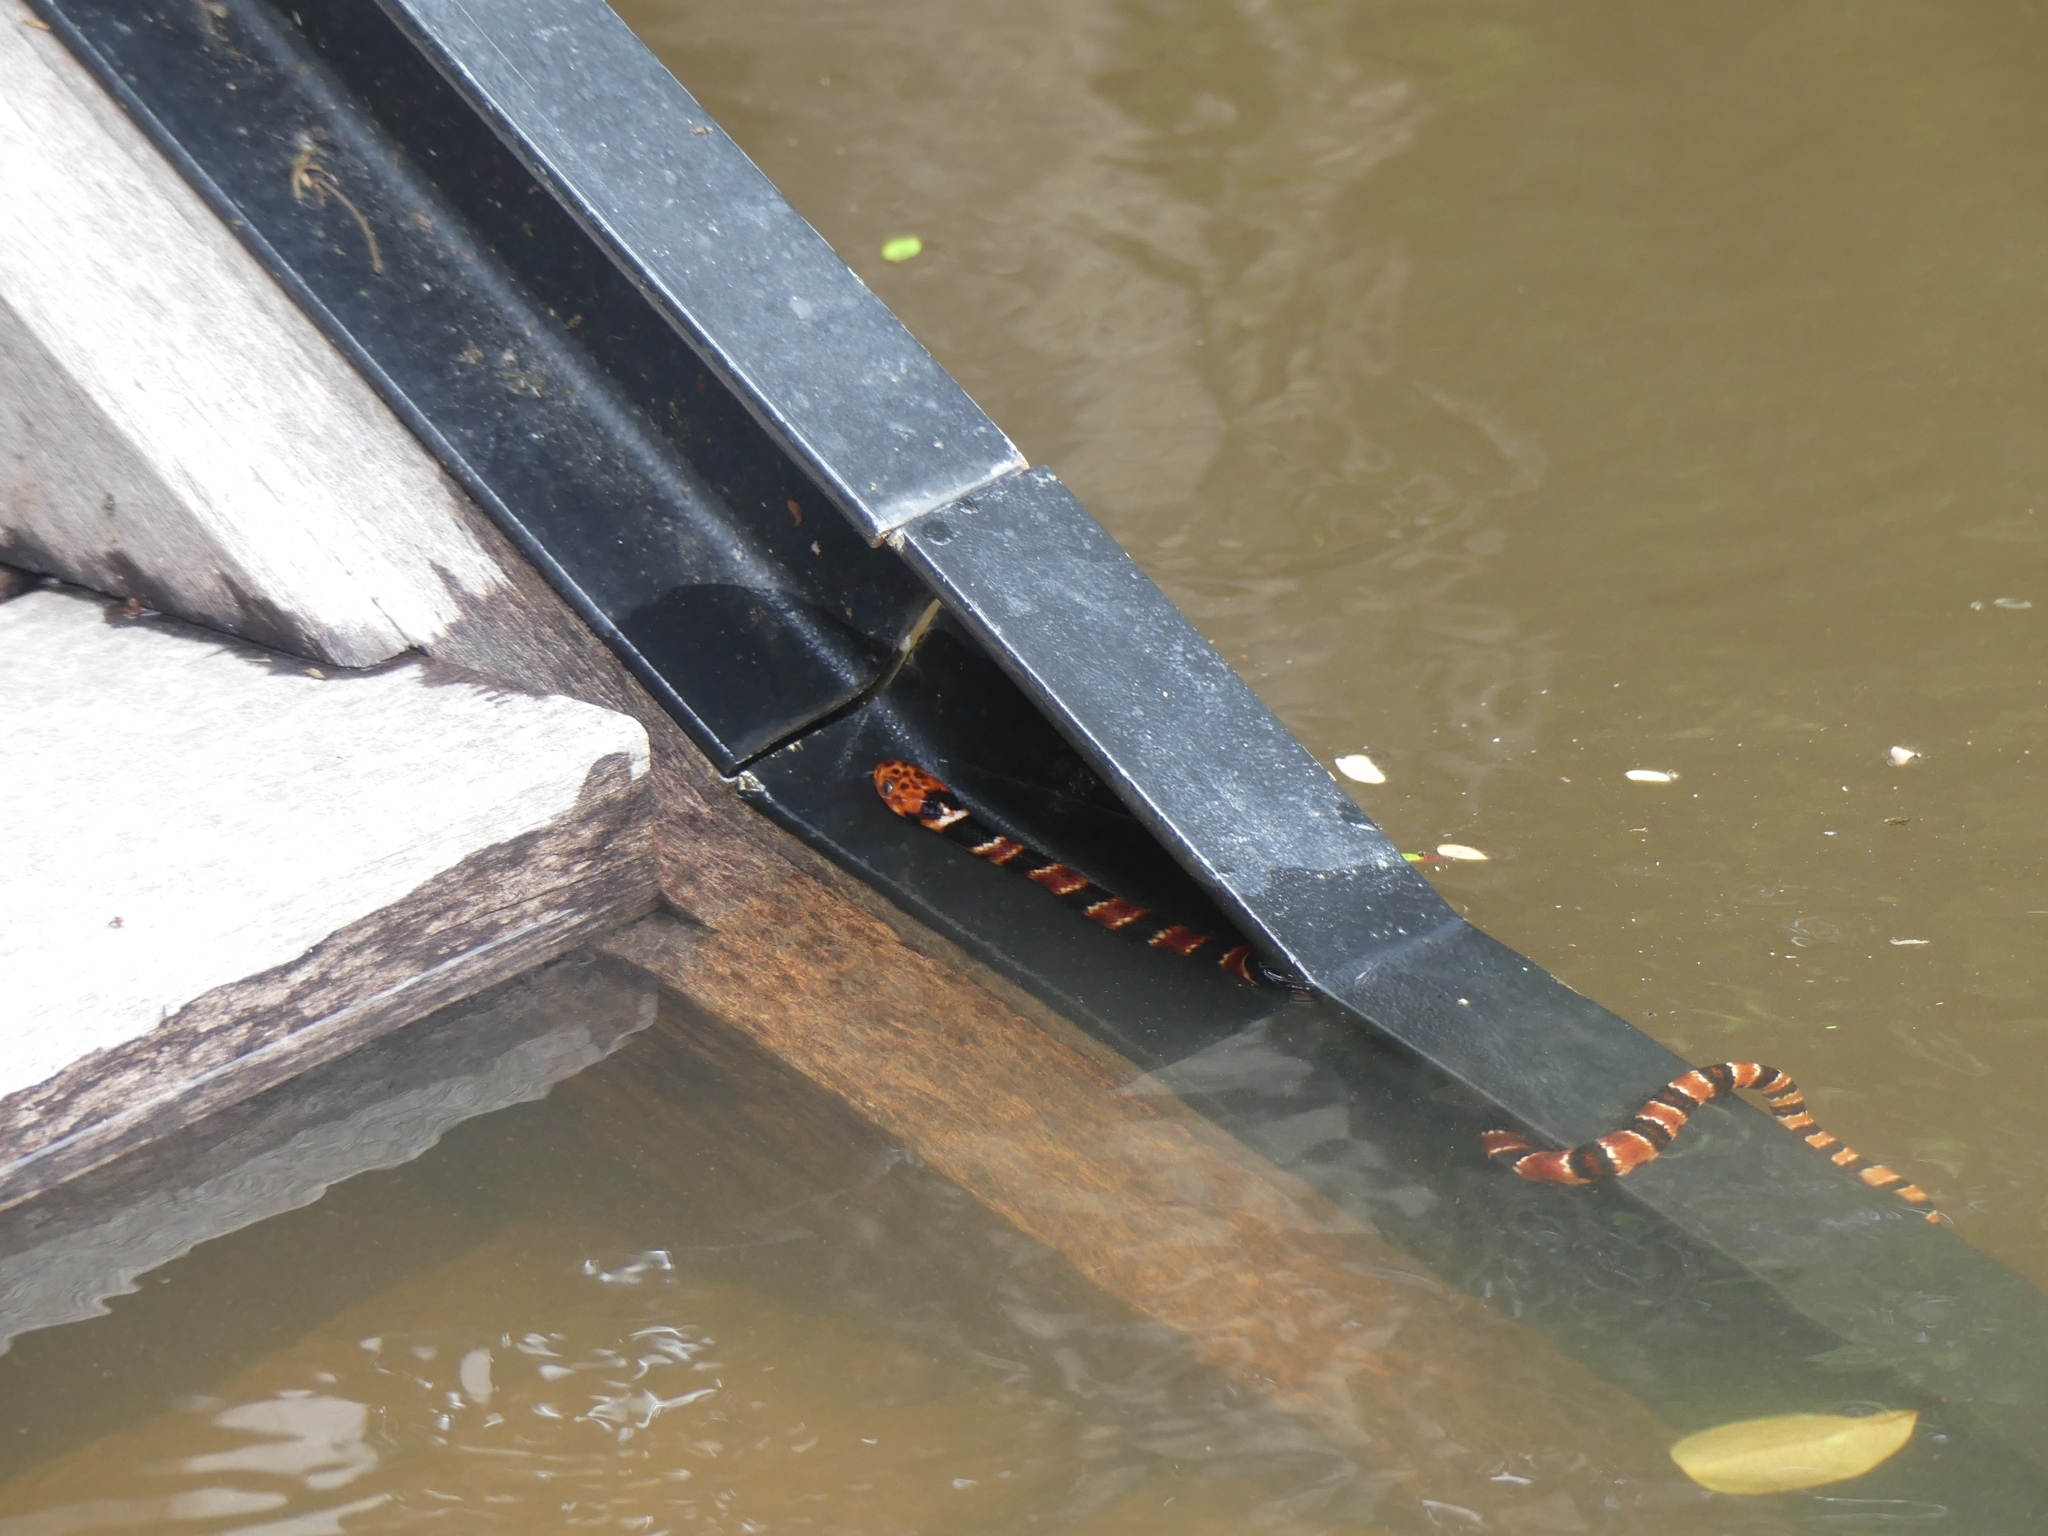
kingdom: Animalia
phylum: Chordata
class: Squamata
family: Colubridae
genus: Hydrodynastes
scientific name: Hydrodynastes bicinctus
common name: Herrmann's water snake
